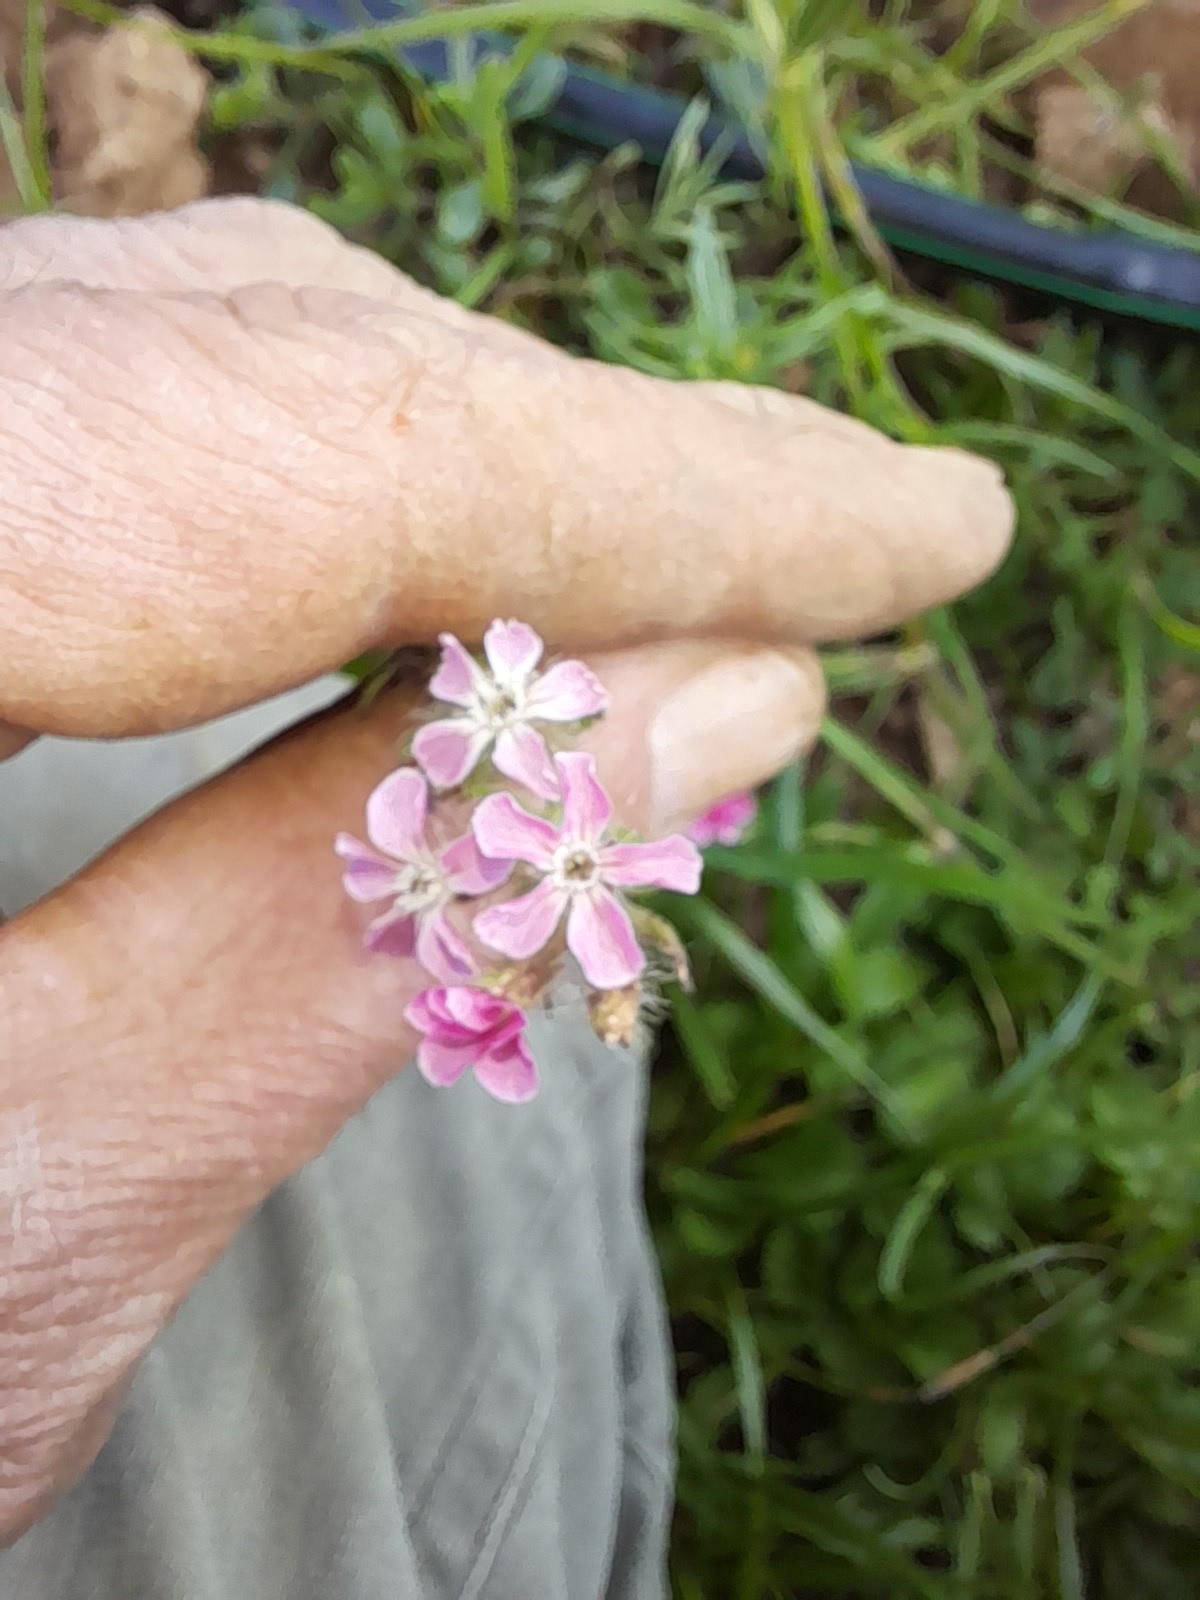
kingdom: Plantae
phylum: Tracheophyta
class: Magnoliopsida
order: Caryophyllales
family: Caryophyllaceae
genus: Silene
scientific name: Silene gallica
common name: Small-flowered catchfly
